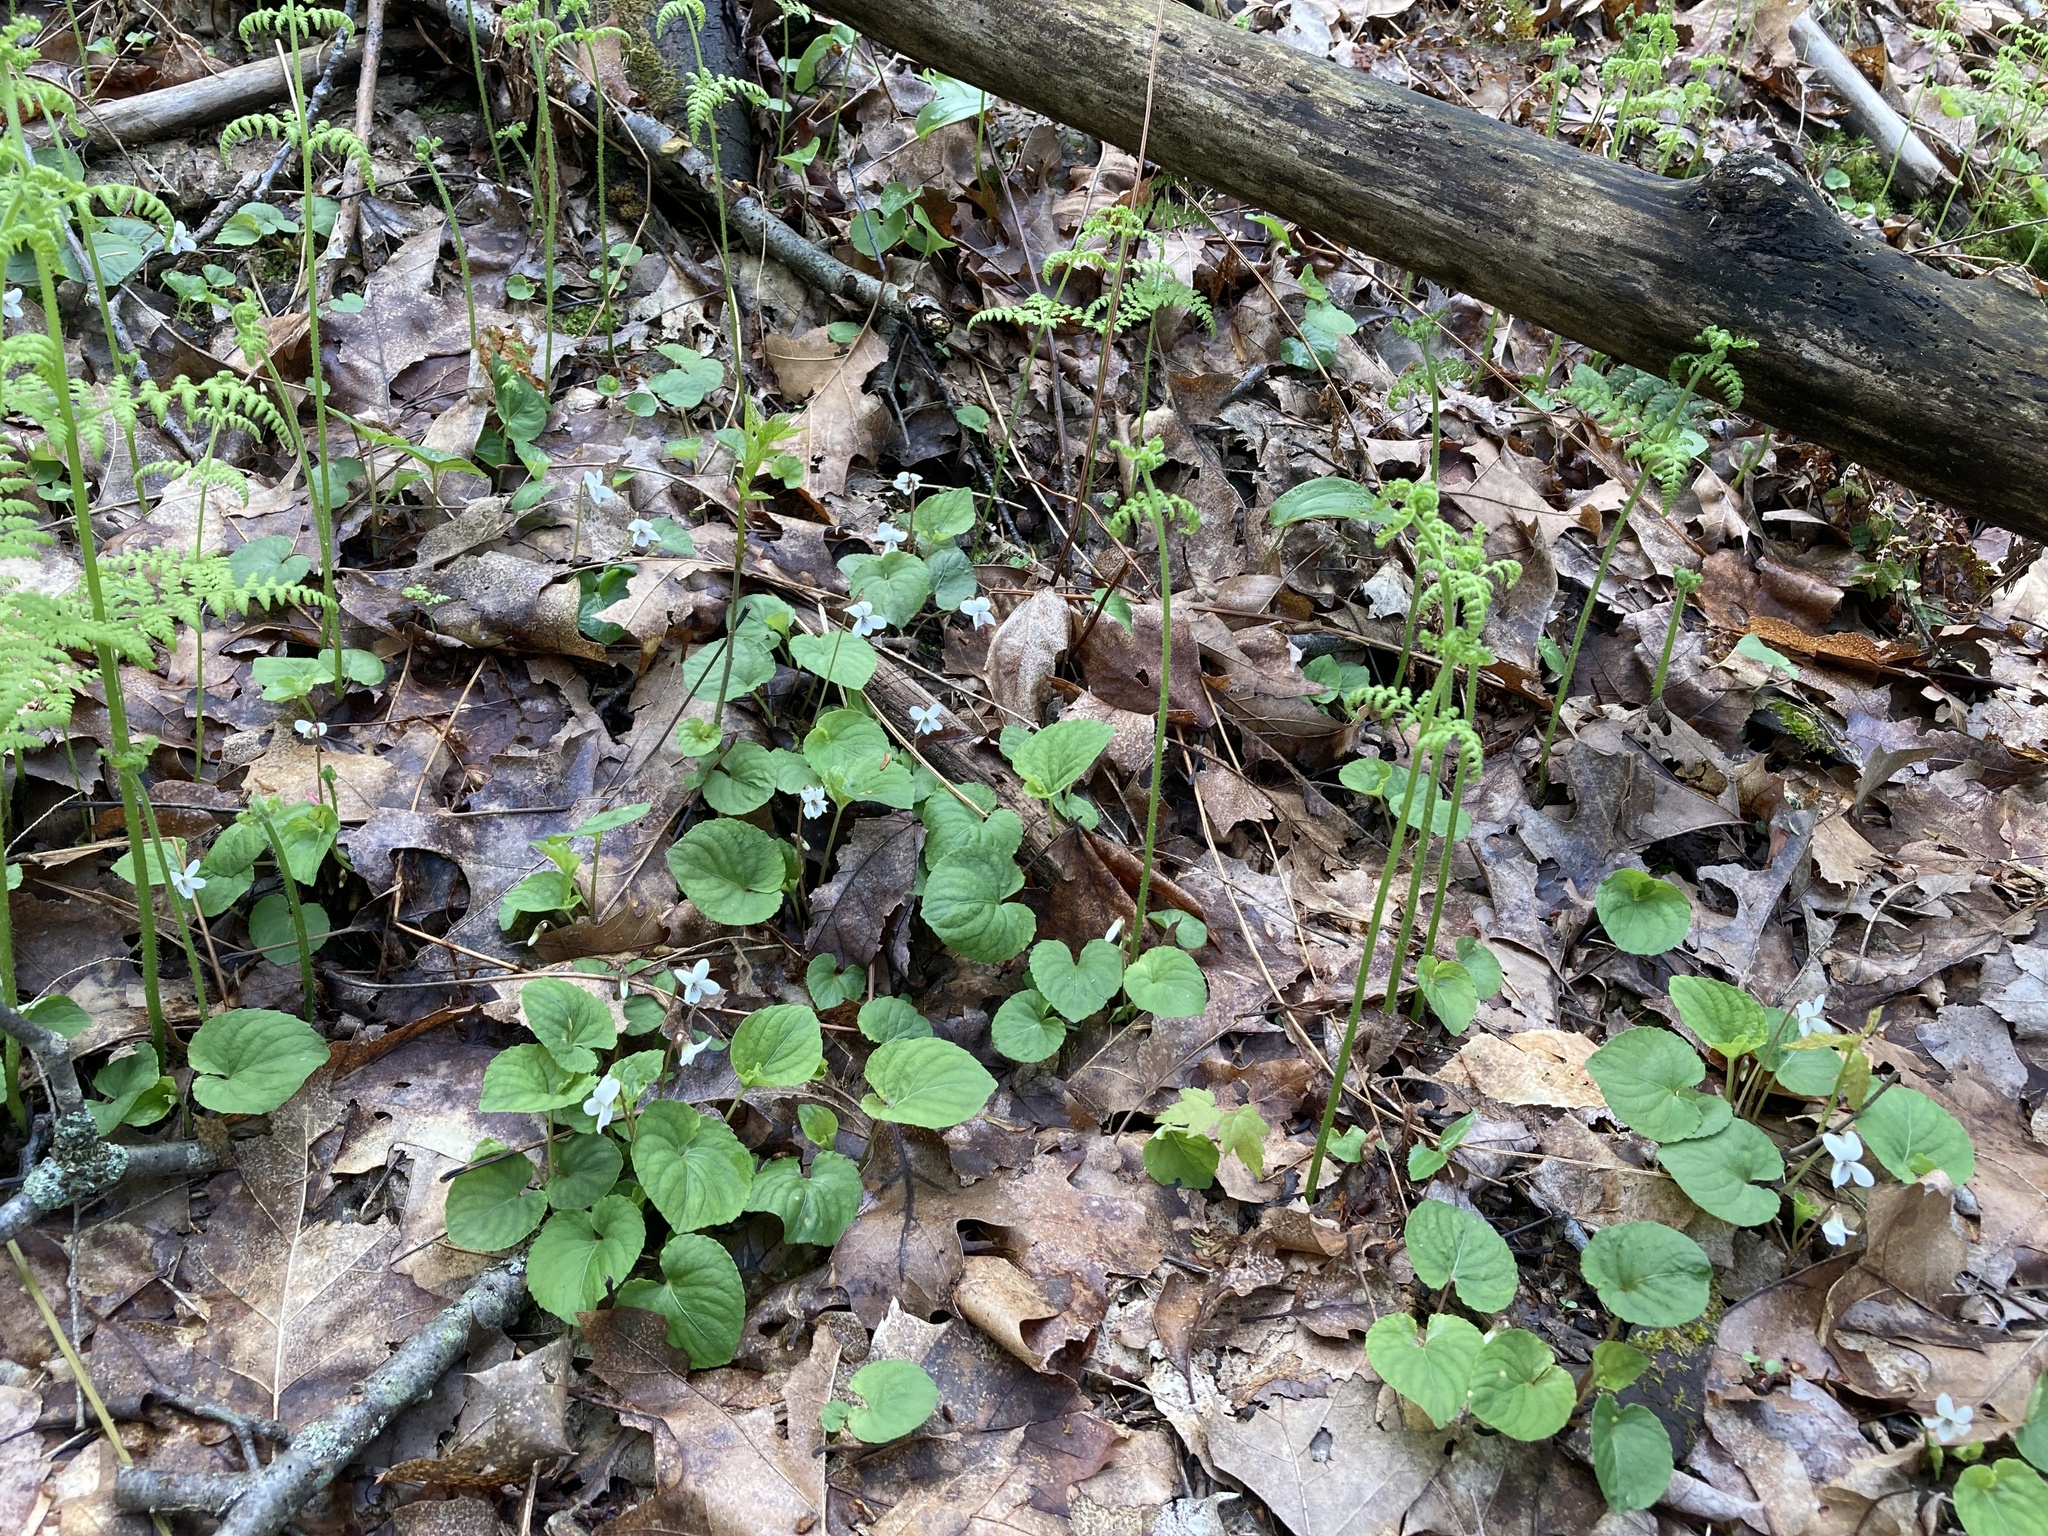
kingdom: Plantae
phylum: Tracheophyta
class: Magnoliopsida
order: Malpighiales
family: Violaceae
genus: Viola
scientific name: Viola blanda
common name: Sweet white violet
